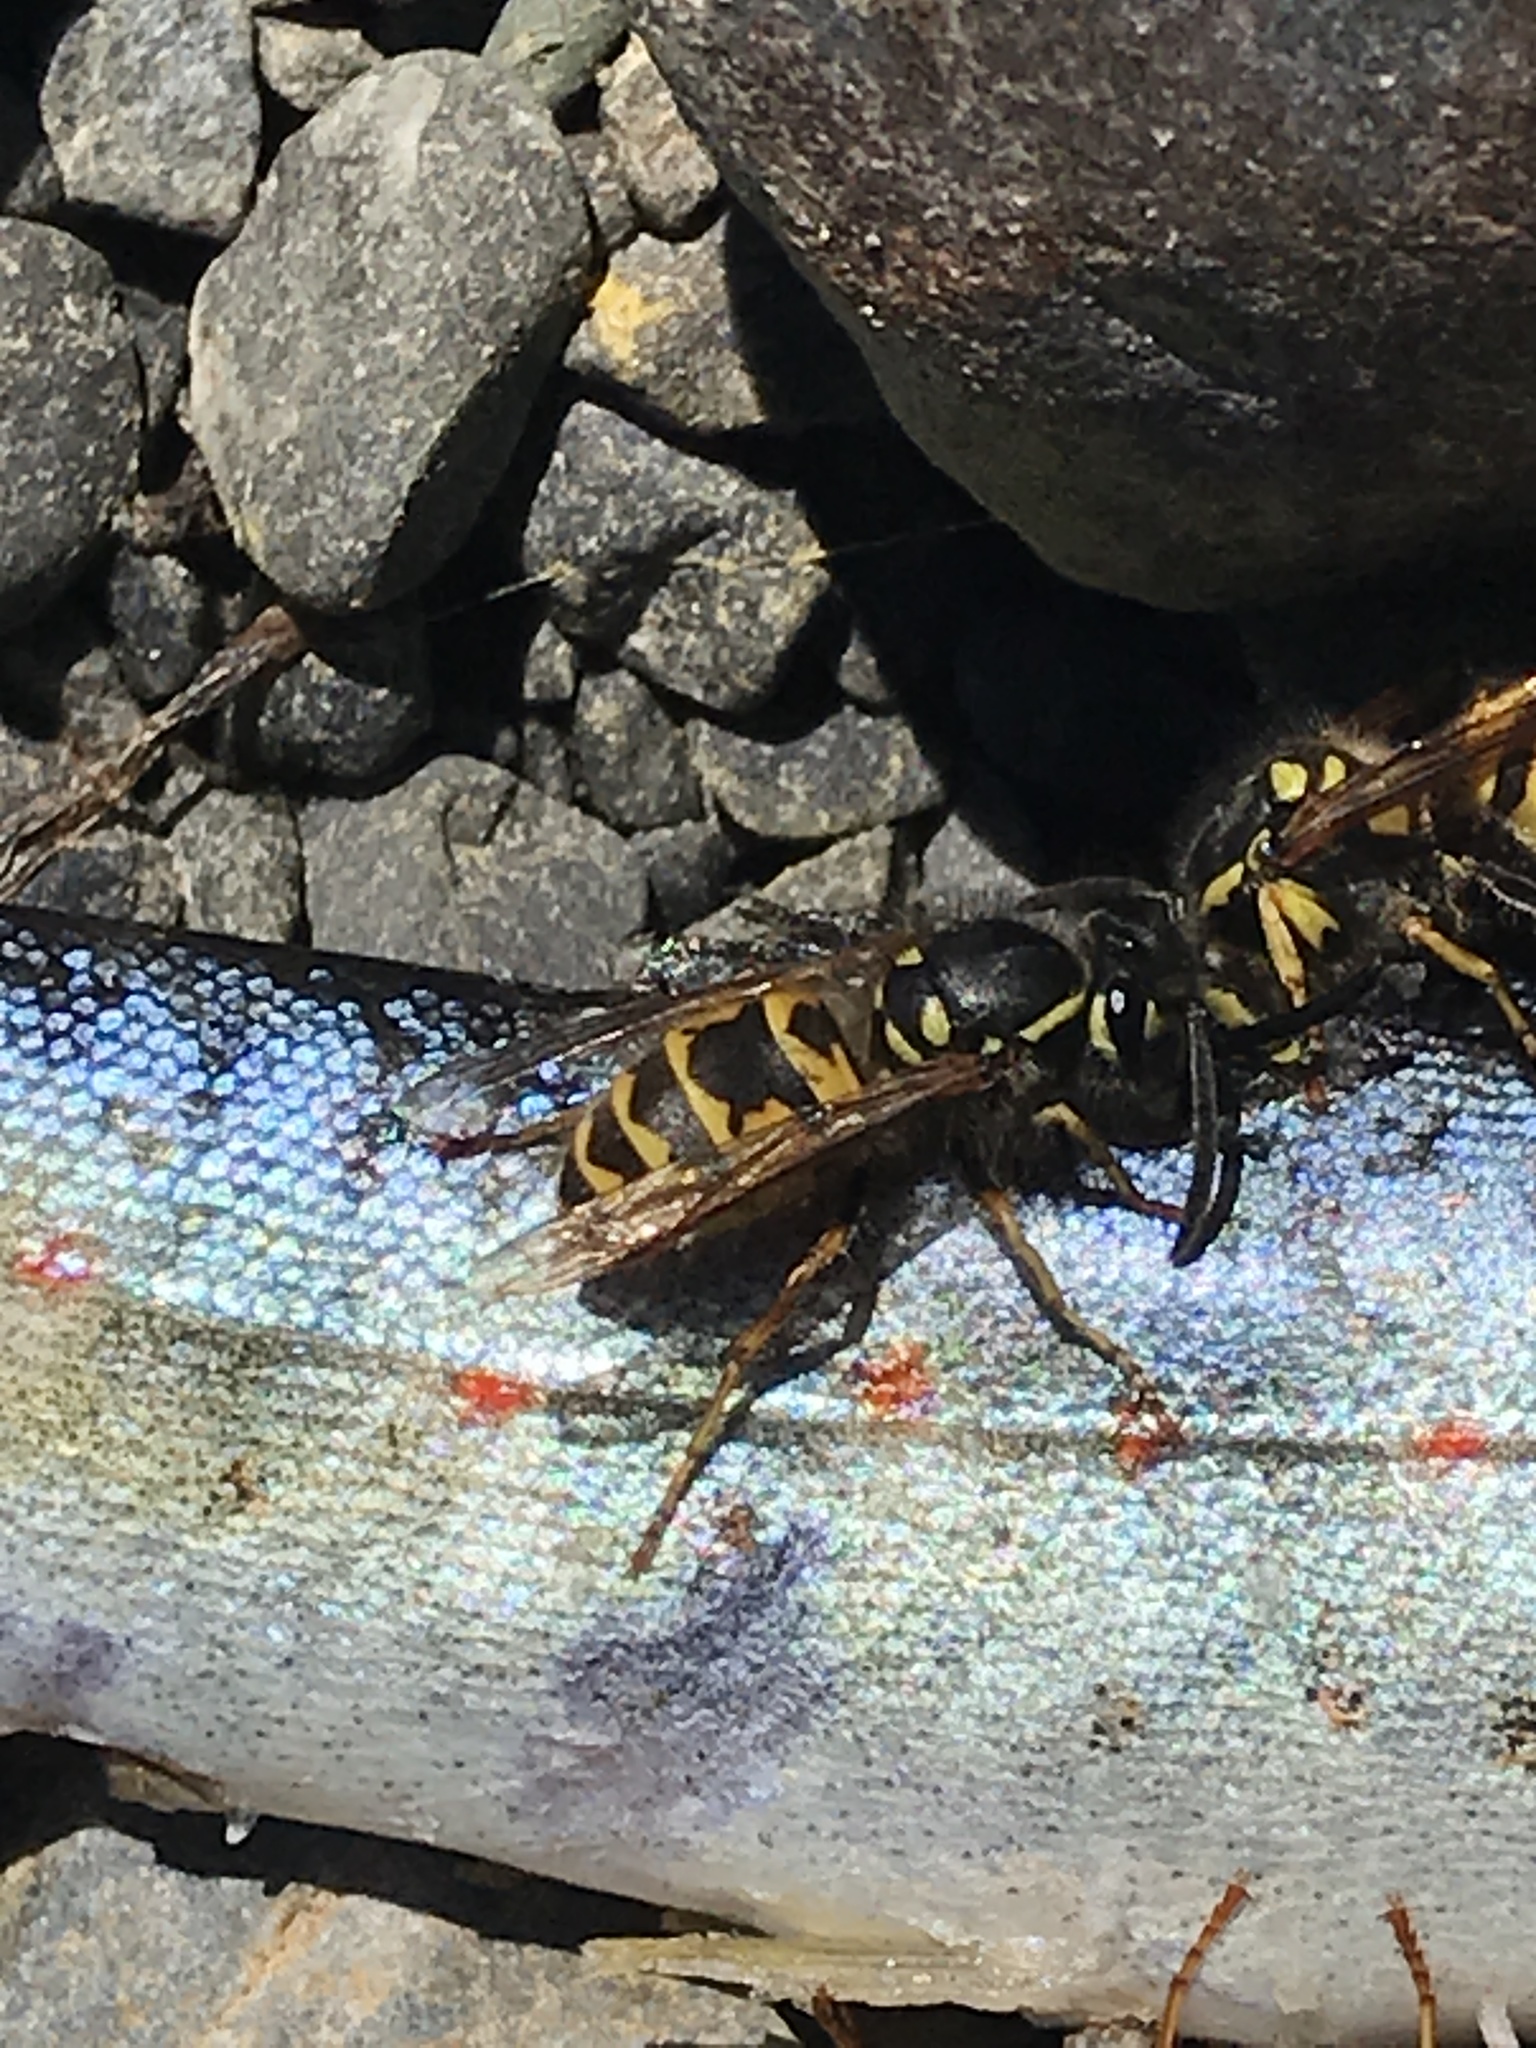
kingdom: Animalia
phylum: Arthropoda
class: Insecta
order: Hymenoptera
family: Vespidae
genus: Vespula
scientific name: Vespula
